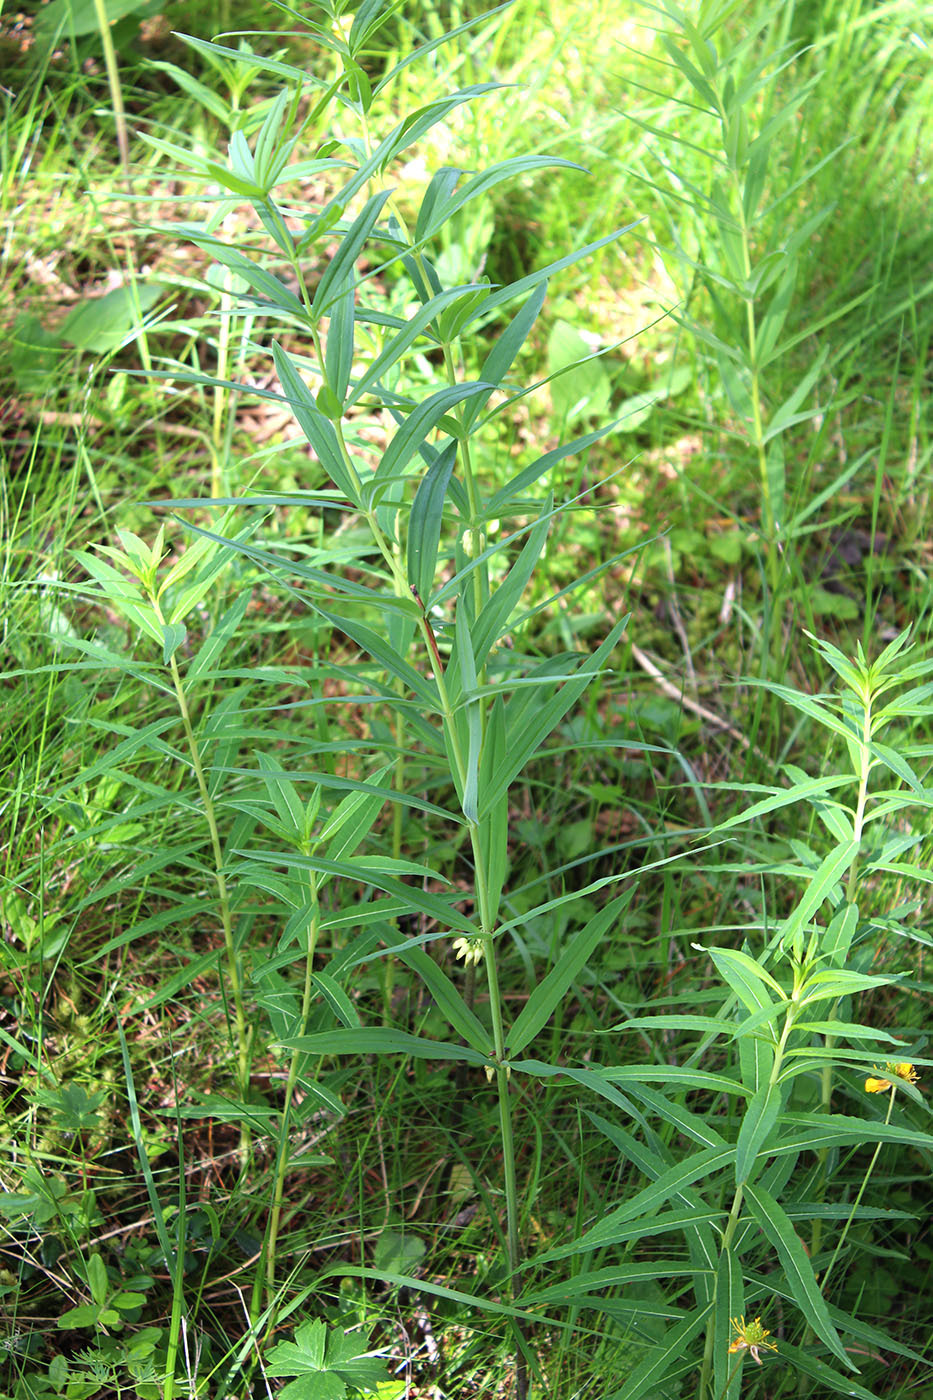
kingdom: Plantae
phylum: Tracheophyta
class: Liliopsida
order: Asparagales
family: Asparagaceae
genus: Polygonatum
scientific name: Polygonatum verticillatum
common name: Whorled solomon's-seal
